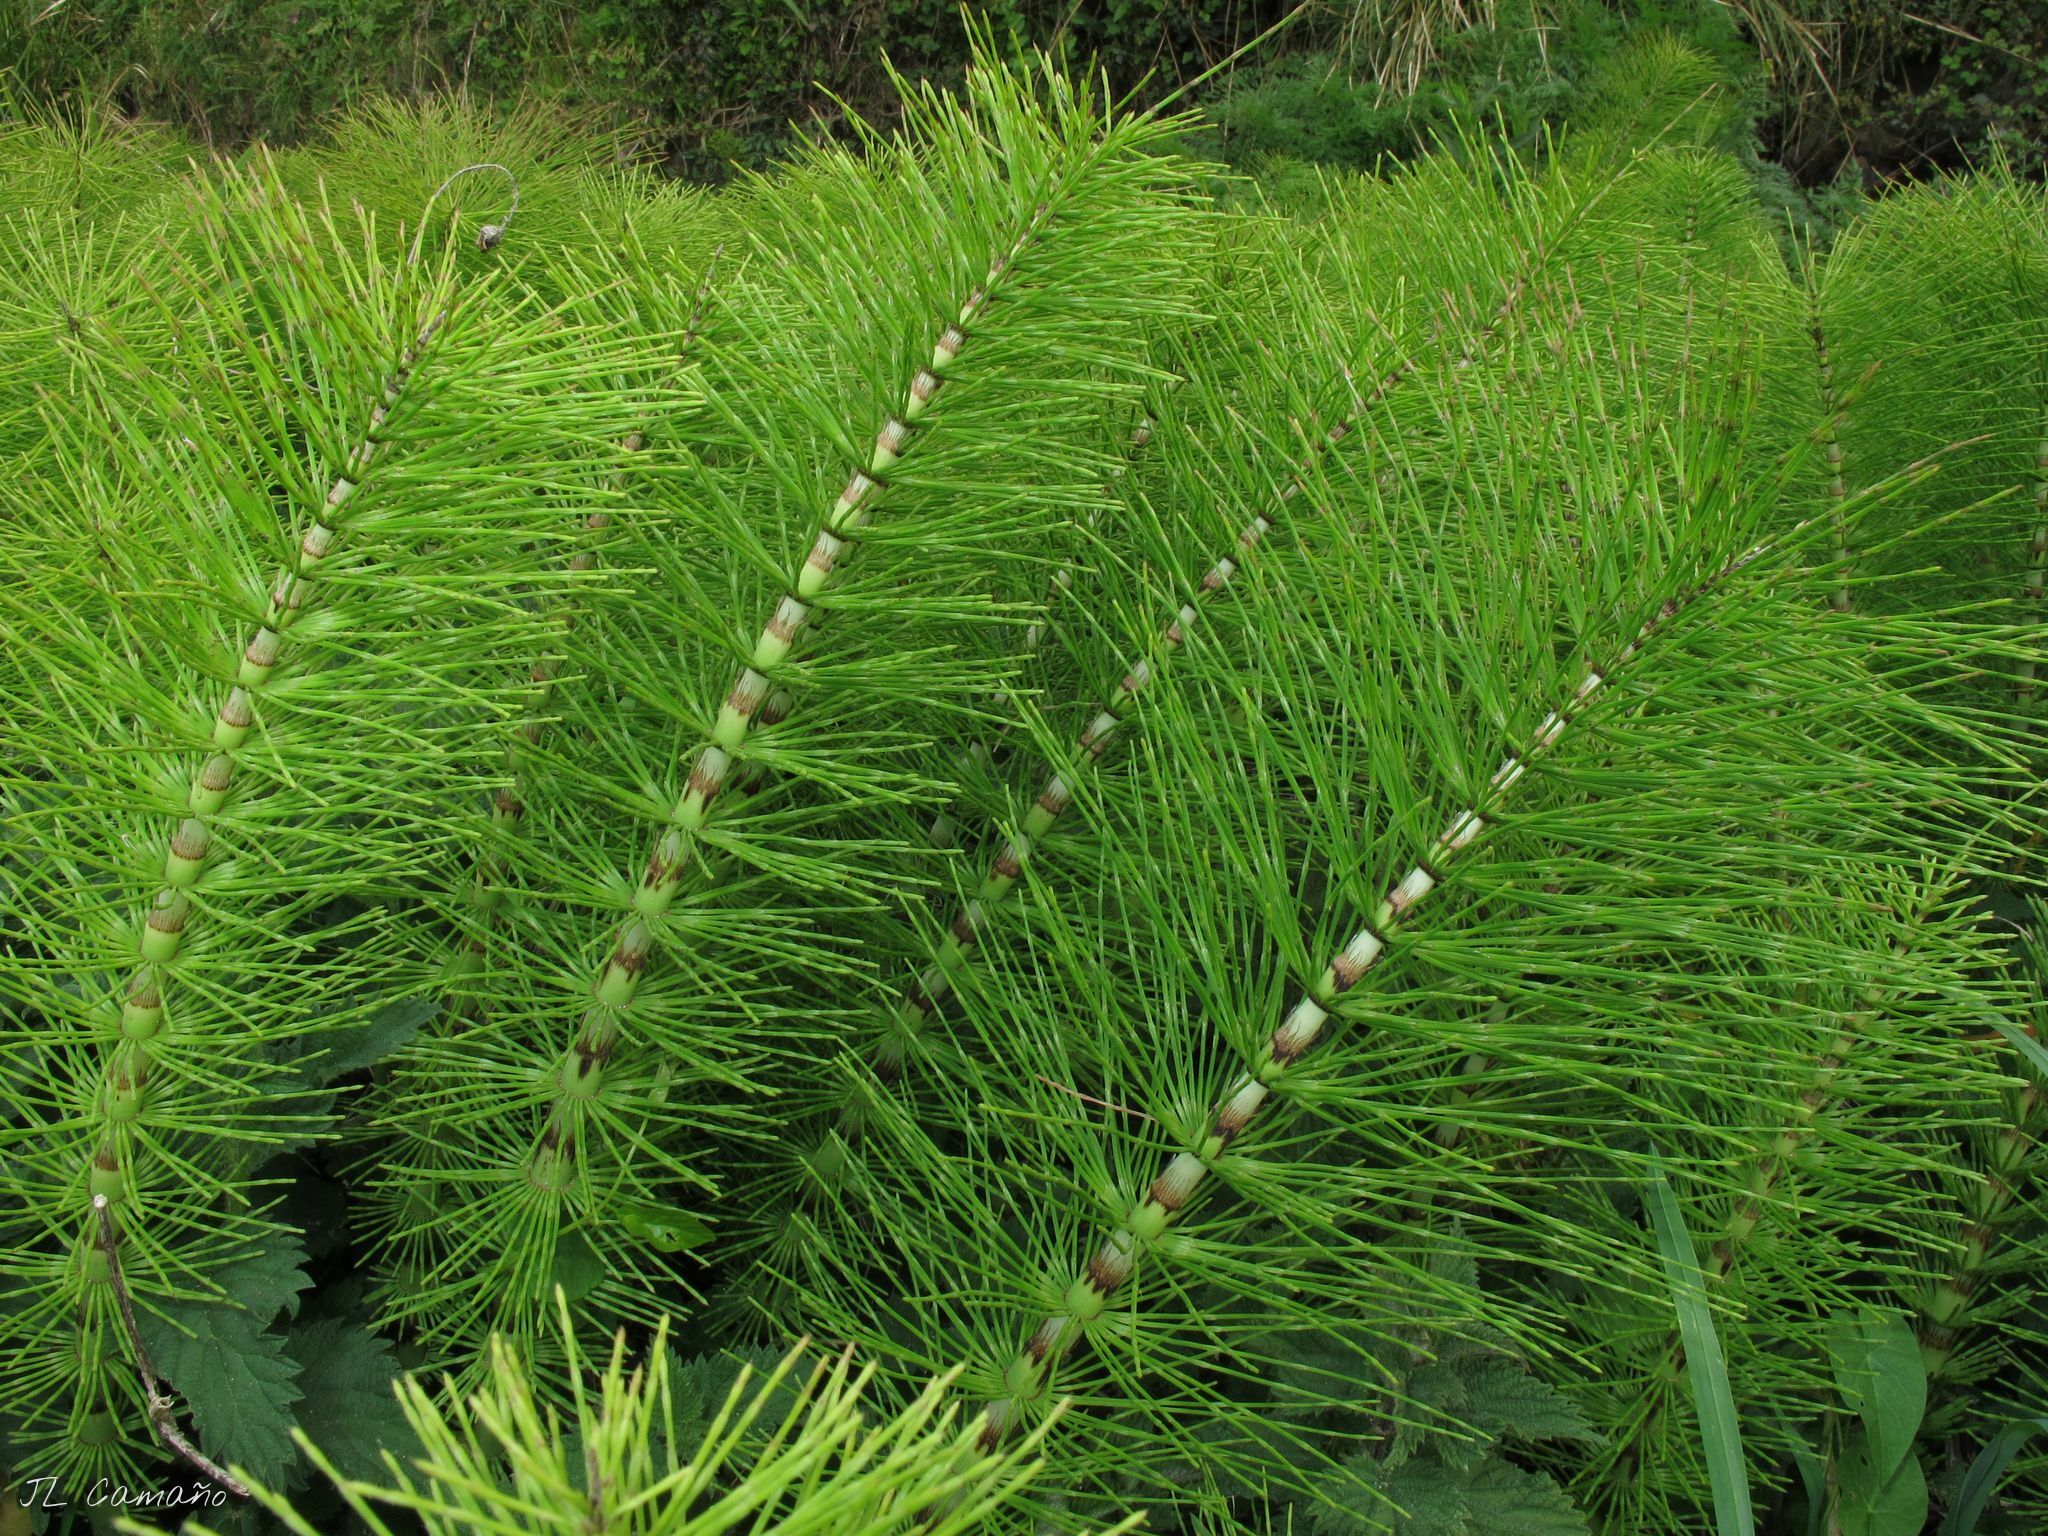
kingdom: Plantae
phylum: Tracheophyta
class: Polypodiopsida
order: Equisetales
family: Equisetaceae
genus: Equisetum
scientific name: Equisetum telmateia
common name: Great horsetail
